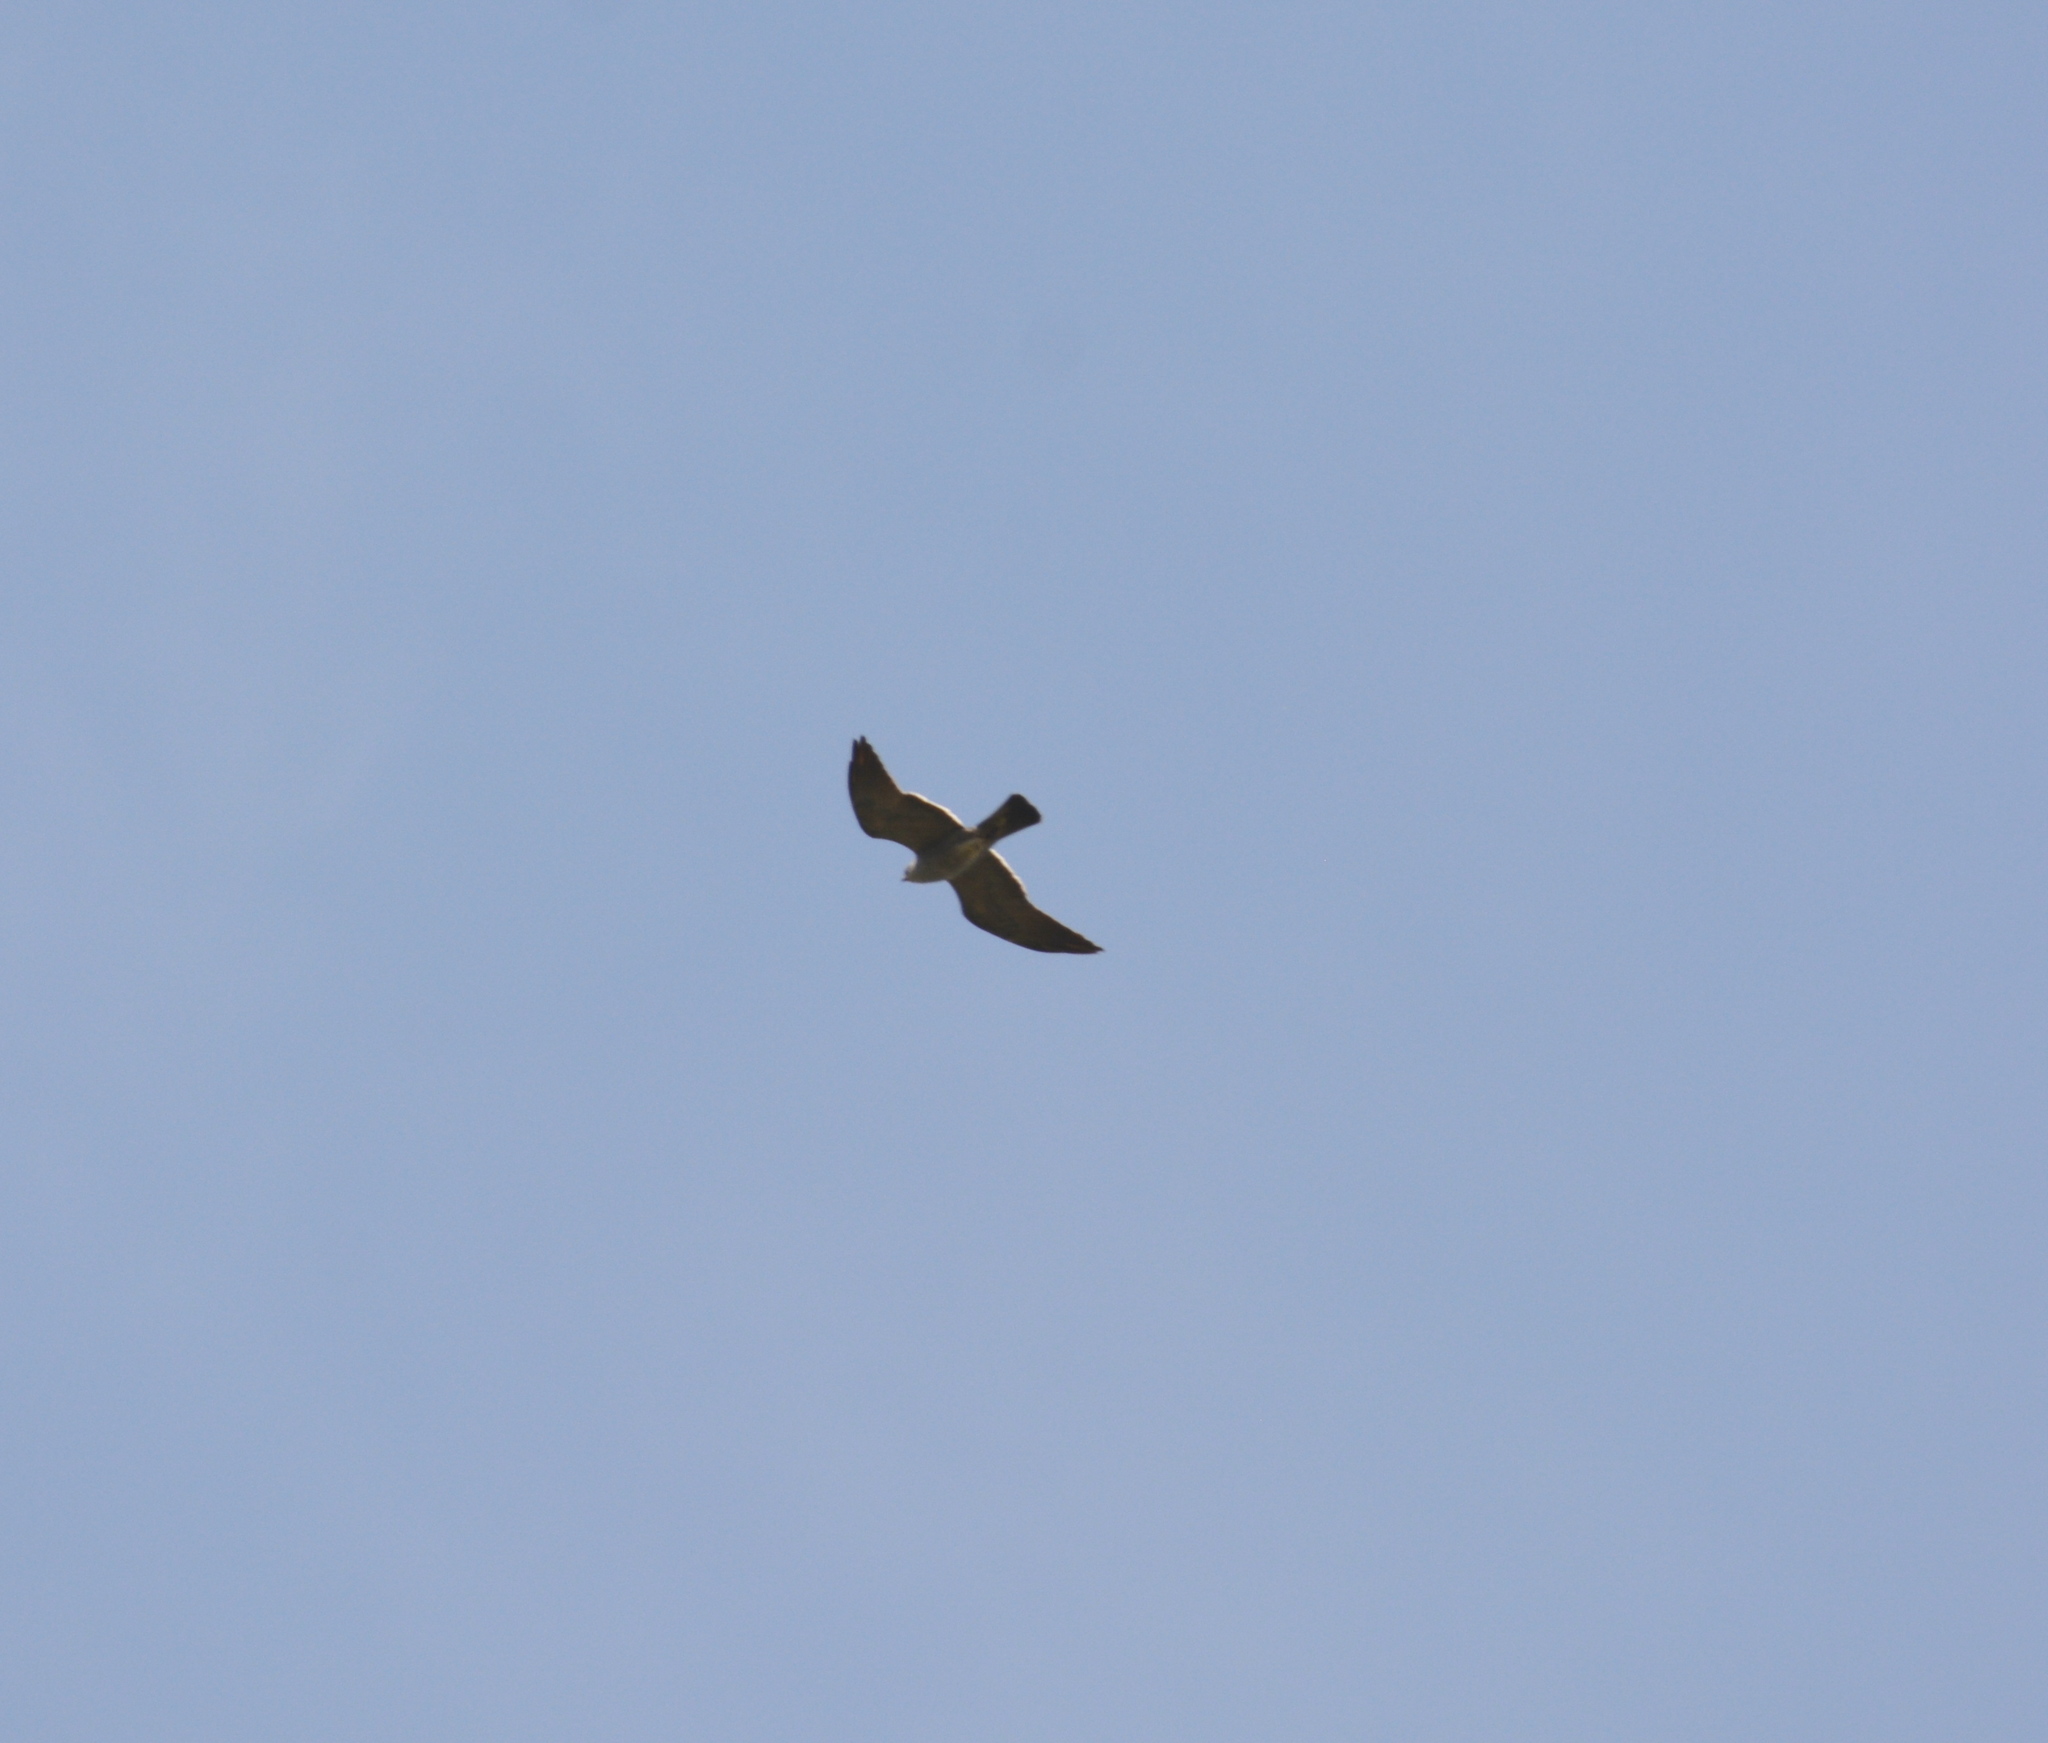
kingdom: Animalia
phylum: Chordata
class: Aves
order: Accipitriformes
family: Accipitridae
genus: Ictinia
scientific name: Ictinia mississippiensis
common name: Mississippi kite
